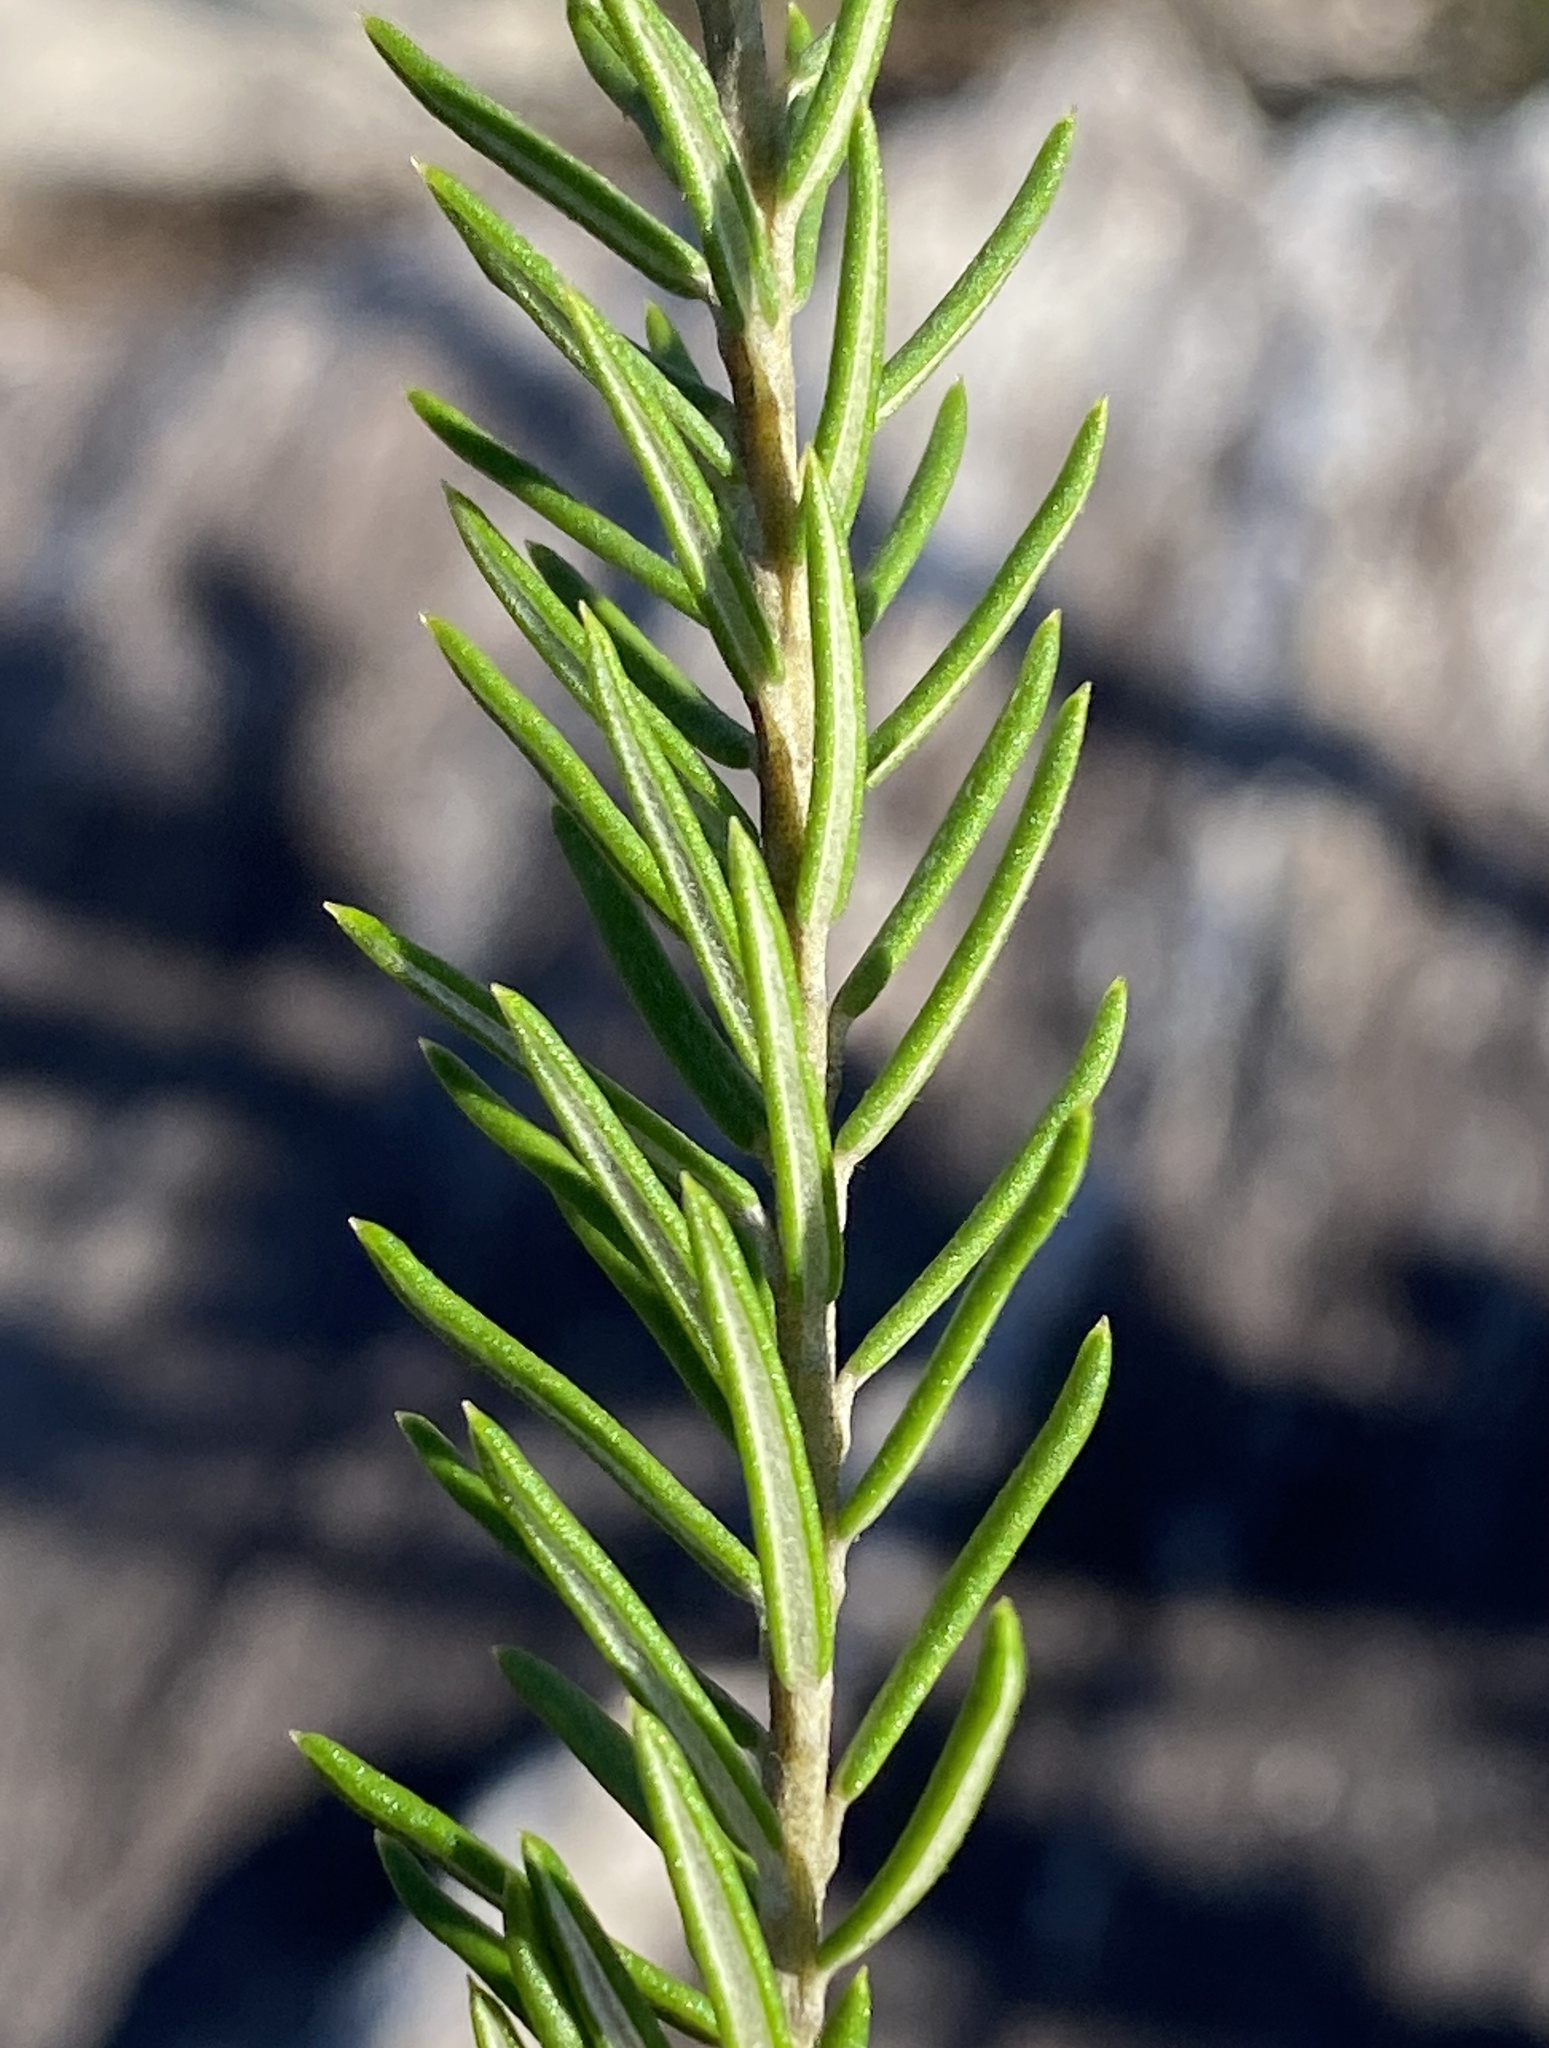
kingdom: Plantae
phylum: Tracheophyta
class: Magnoliopsida
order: Rosales
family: Rhamnaceae
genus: Phylica
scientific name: Phylica willdenowiana
